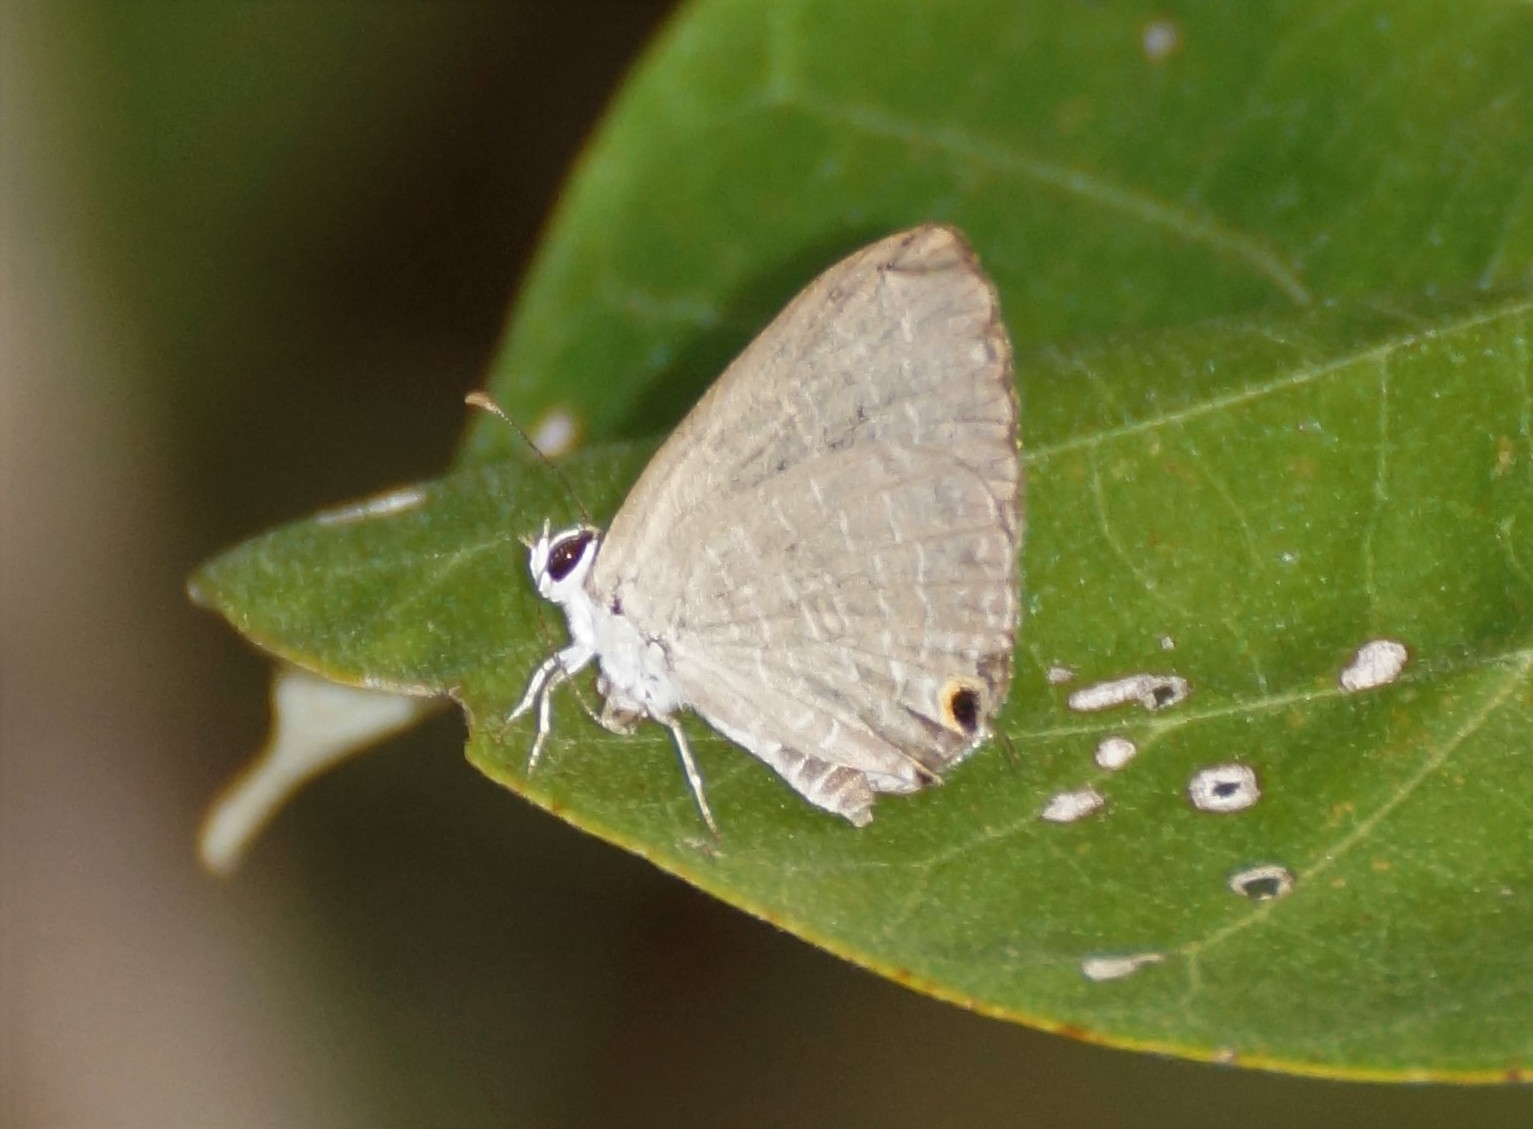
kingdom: Animalia
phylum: Arthropoda
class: Insecta
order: Lepidoptera
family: Lycaenidae
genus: Jamides
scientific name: Jamides phaseli
